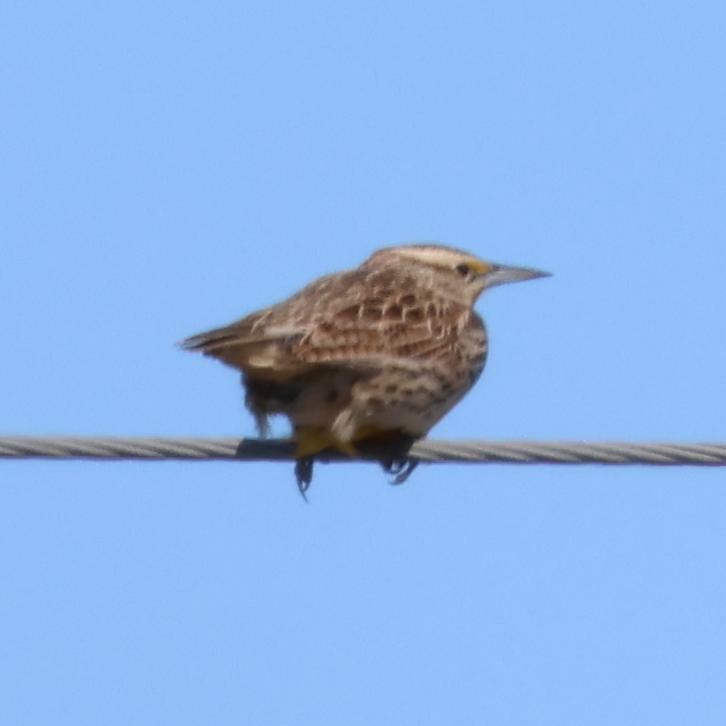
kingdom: Animalia
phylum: Chordata
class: Aves
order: Passeriformes
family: Icteridae
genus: Sturnella
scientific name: Sturnella neglecta
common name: Western meadowlark
